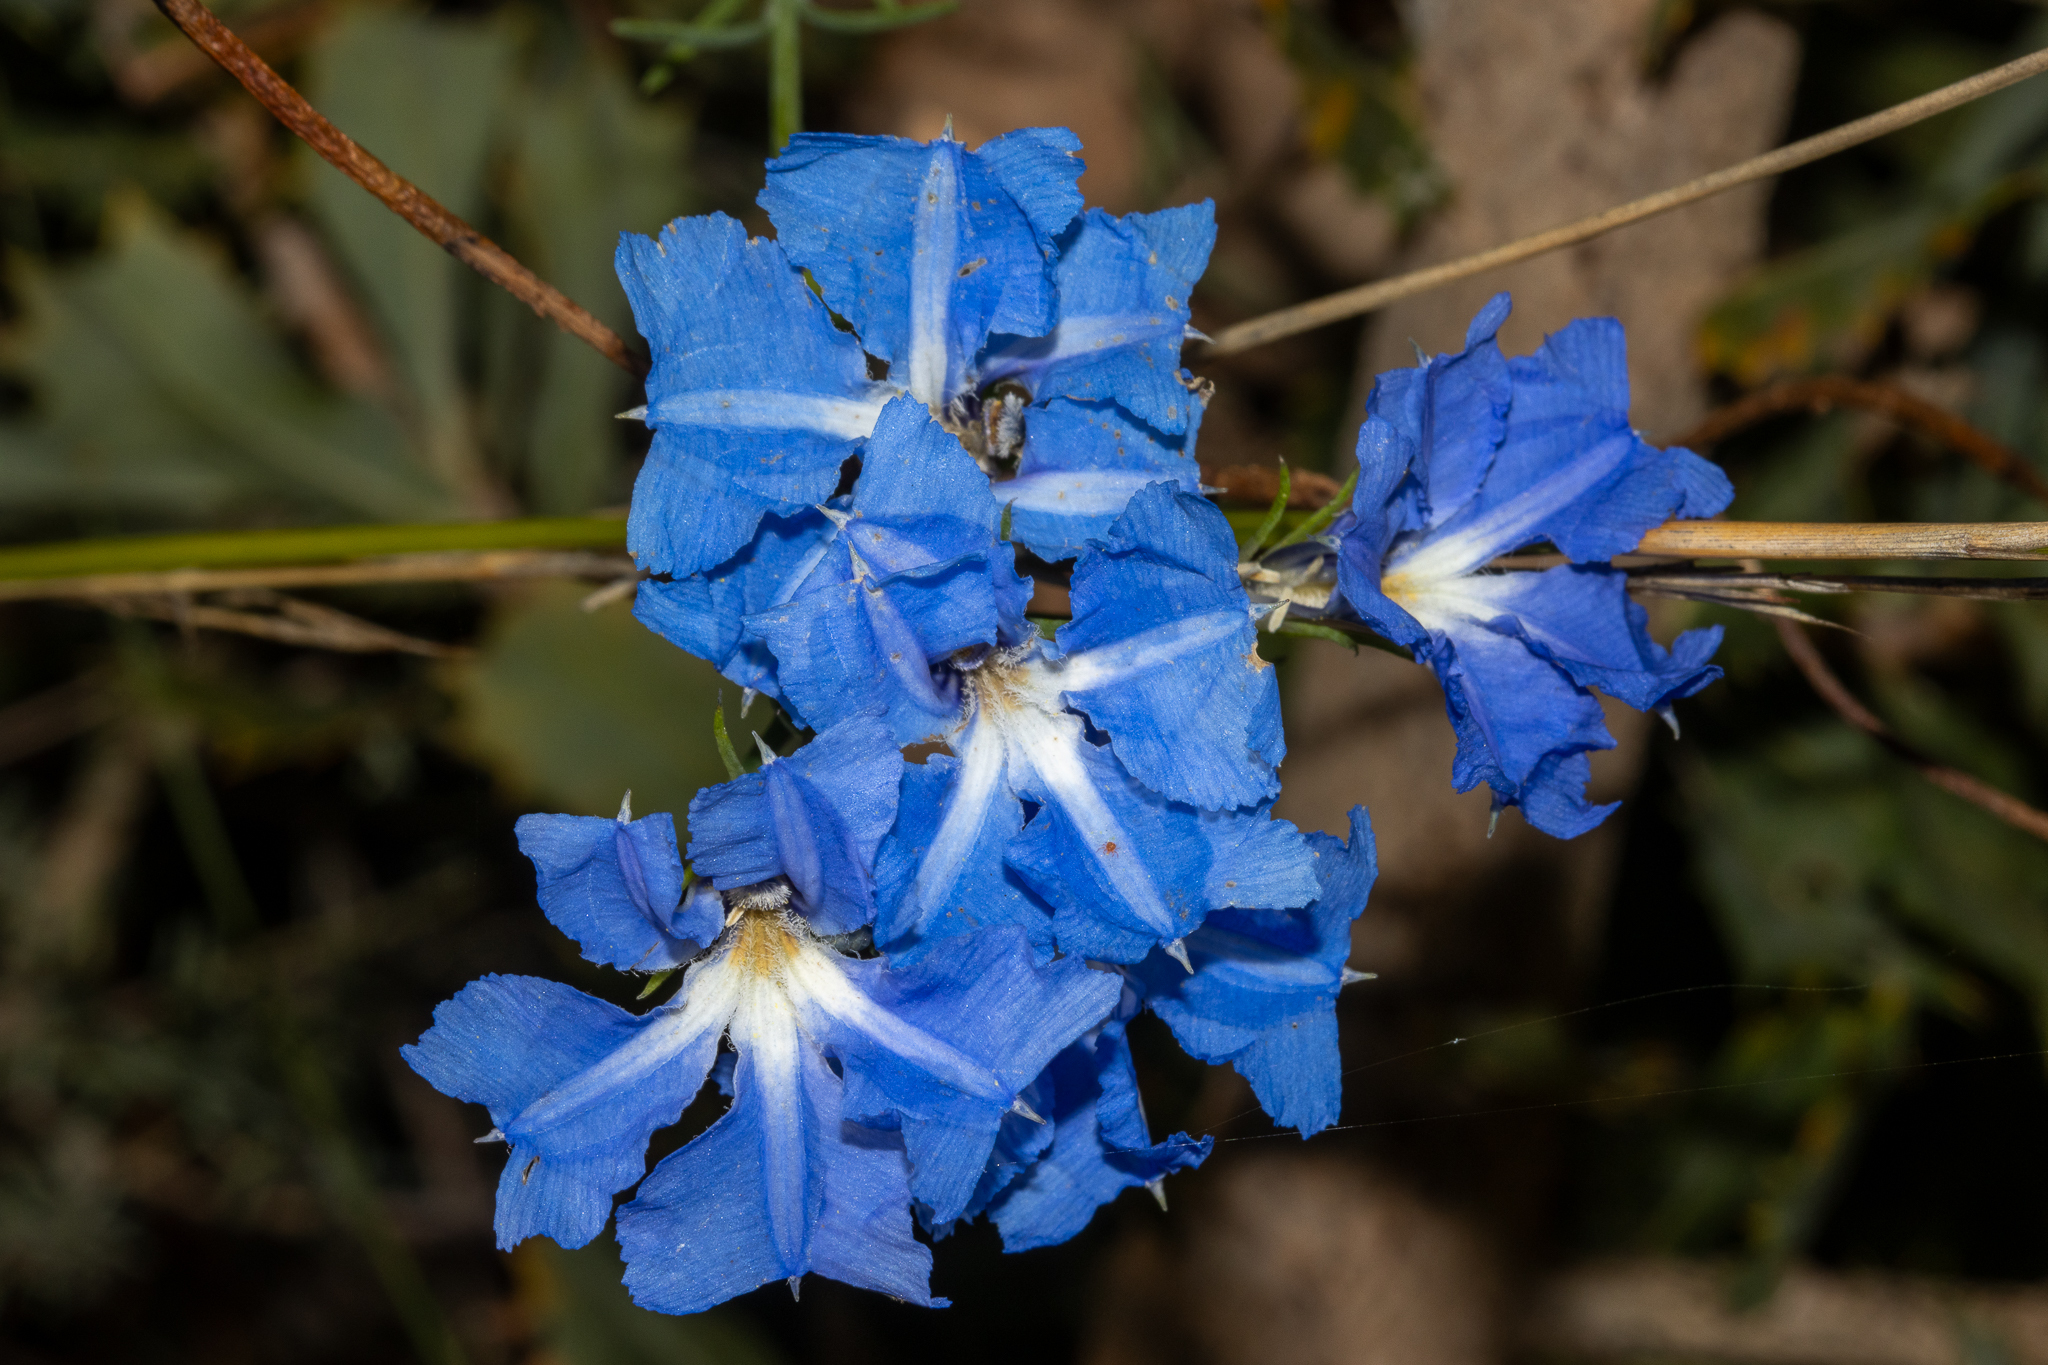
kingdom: Plantae
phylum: Tracheophyta
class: Magnoliopsida
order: Asterales
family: Goodeniaceae
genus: Lechenaultia
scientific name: Lechenaultia biloba
